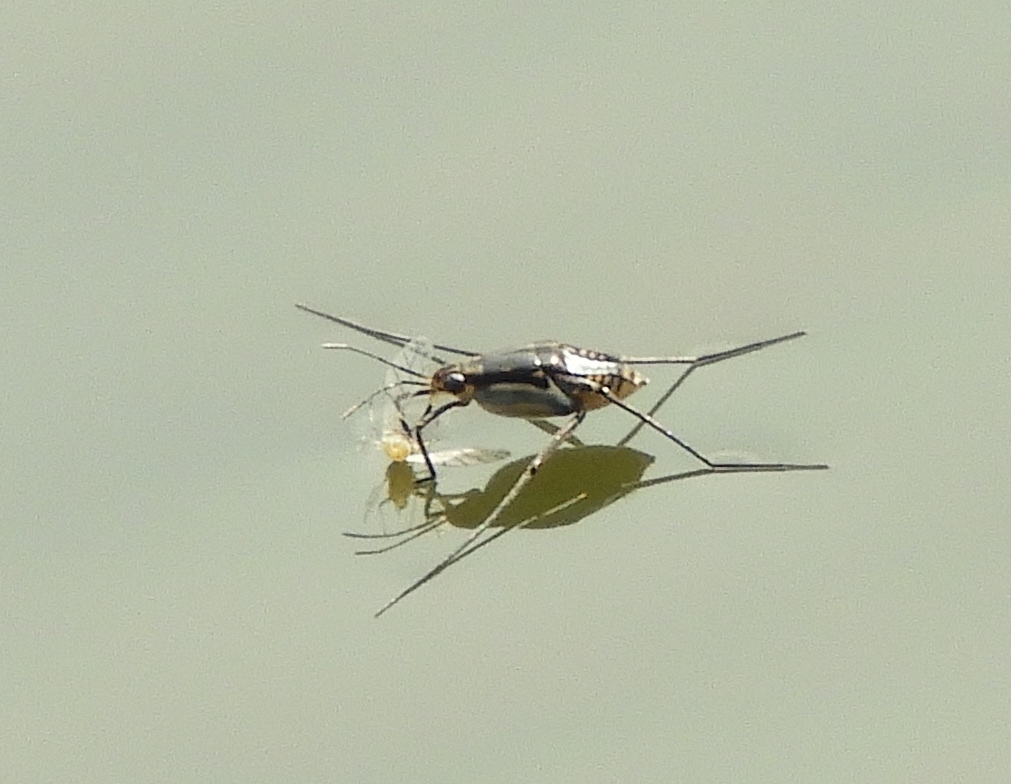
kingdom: Animalia
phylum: Arthropoda
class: Insecta
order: Hemiptera
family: Gerridae
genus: Trepobates
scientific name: Trepobates
